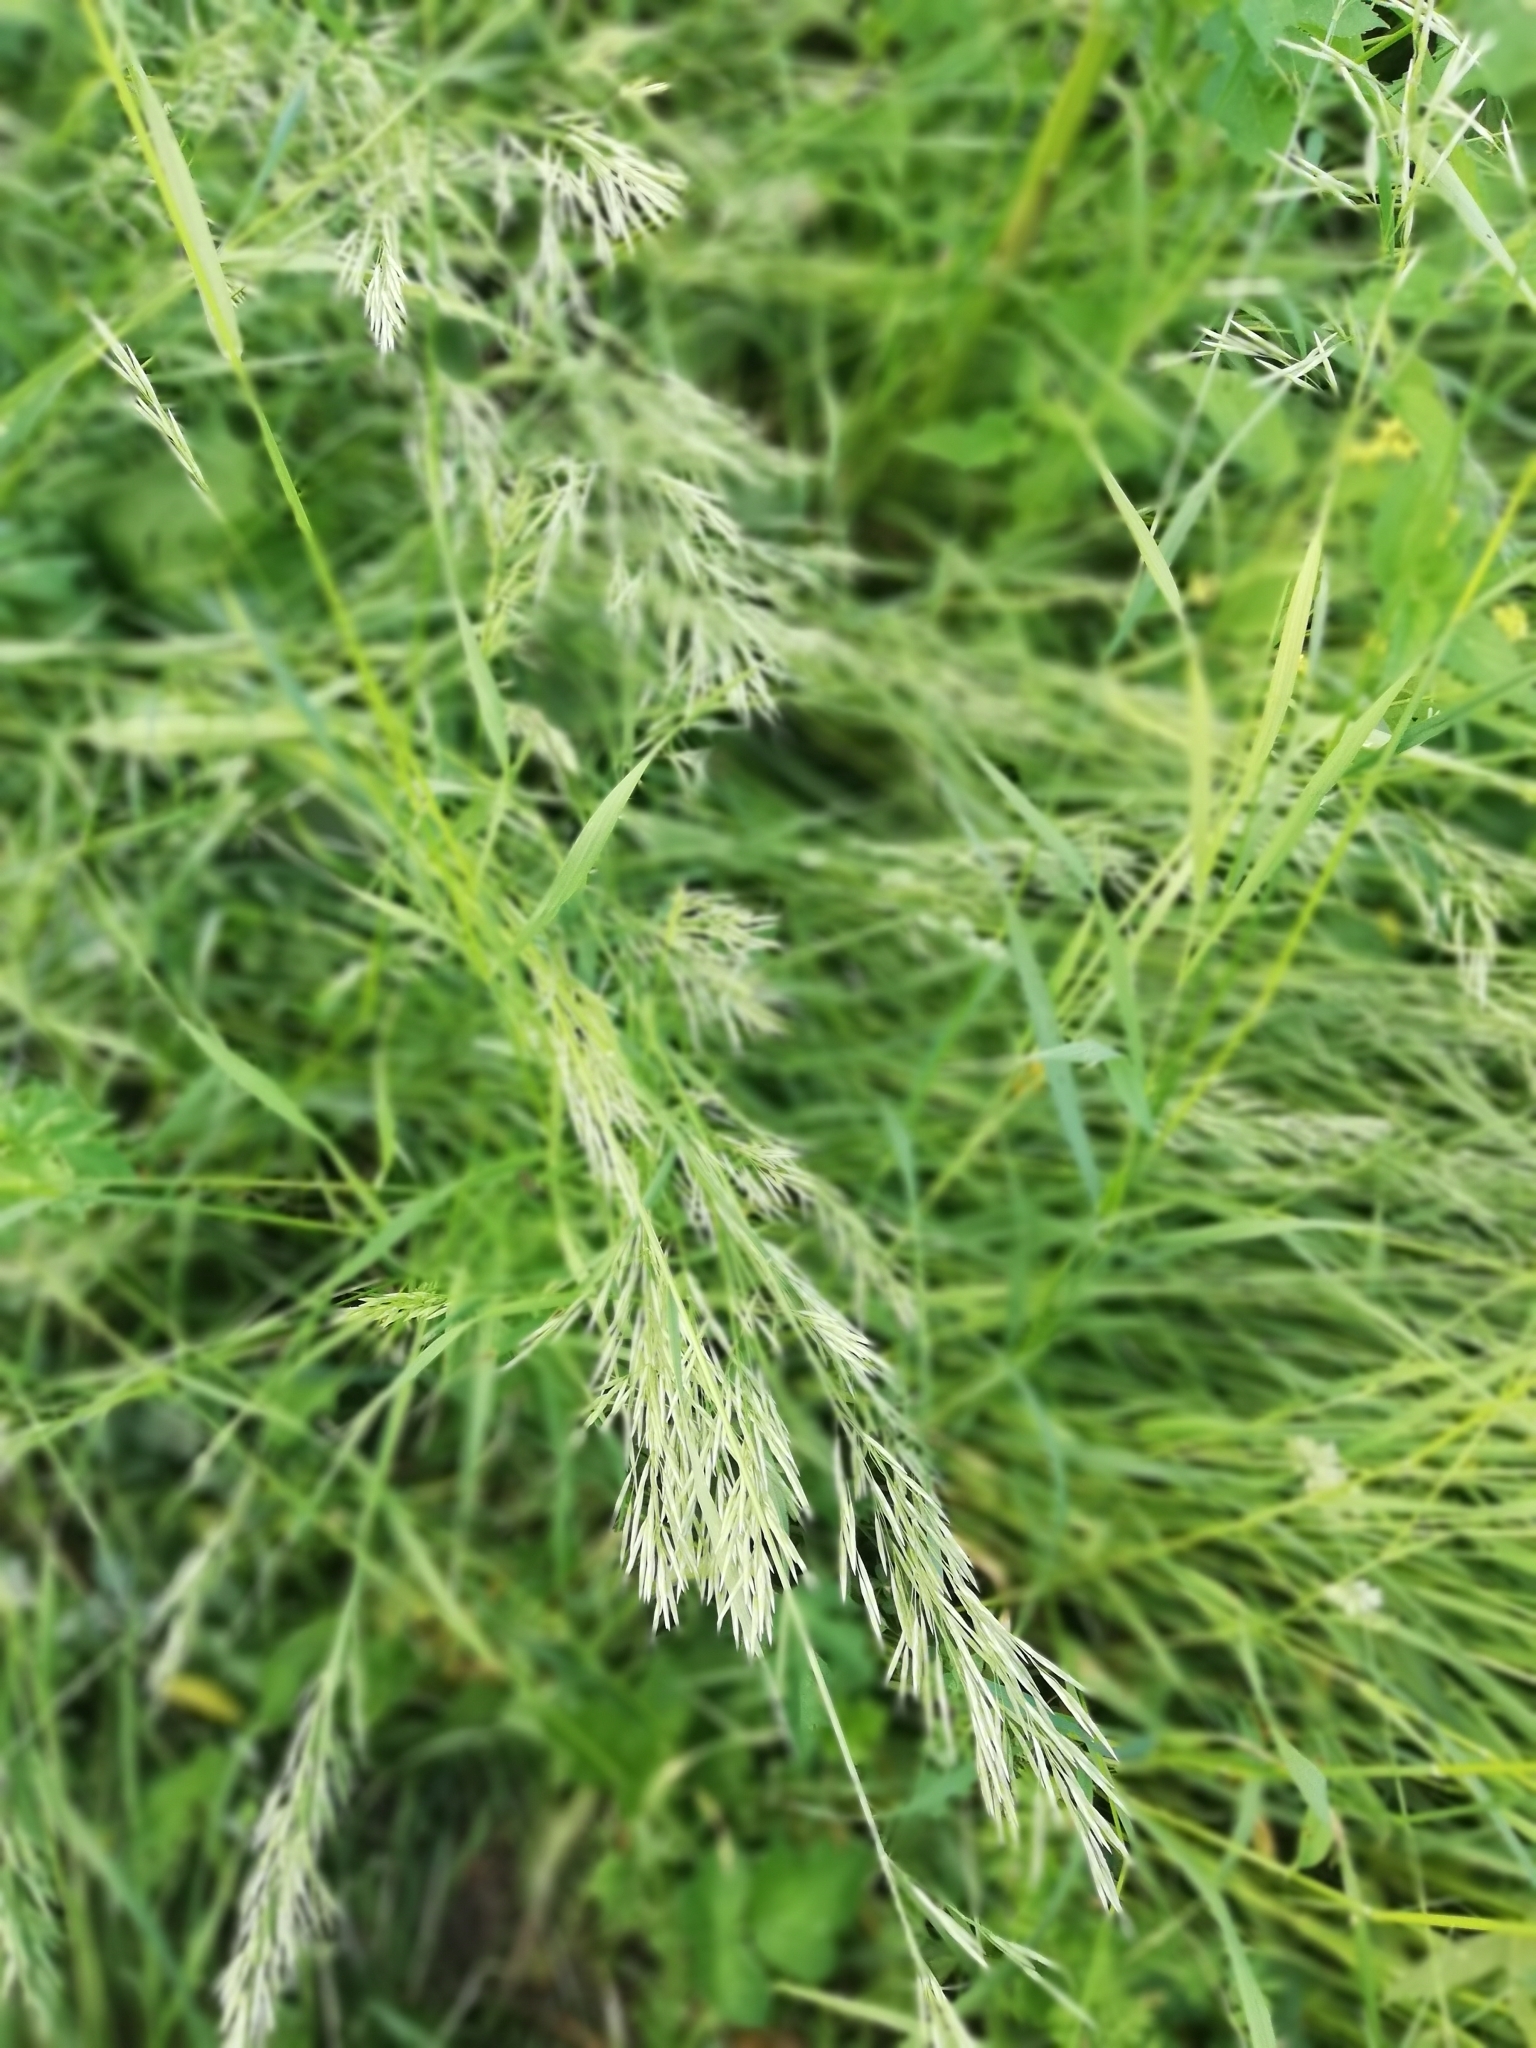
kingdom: Plantae
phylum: Tracheophyta
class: Liliopsida
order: Poales
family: Poaceae
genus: Bromus
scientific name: Bromus inermis
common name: Smooth brome
